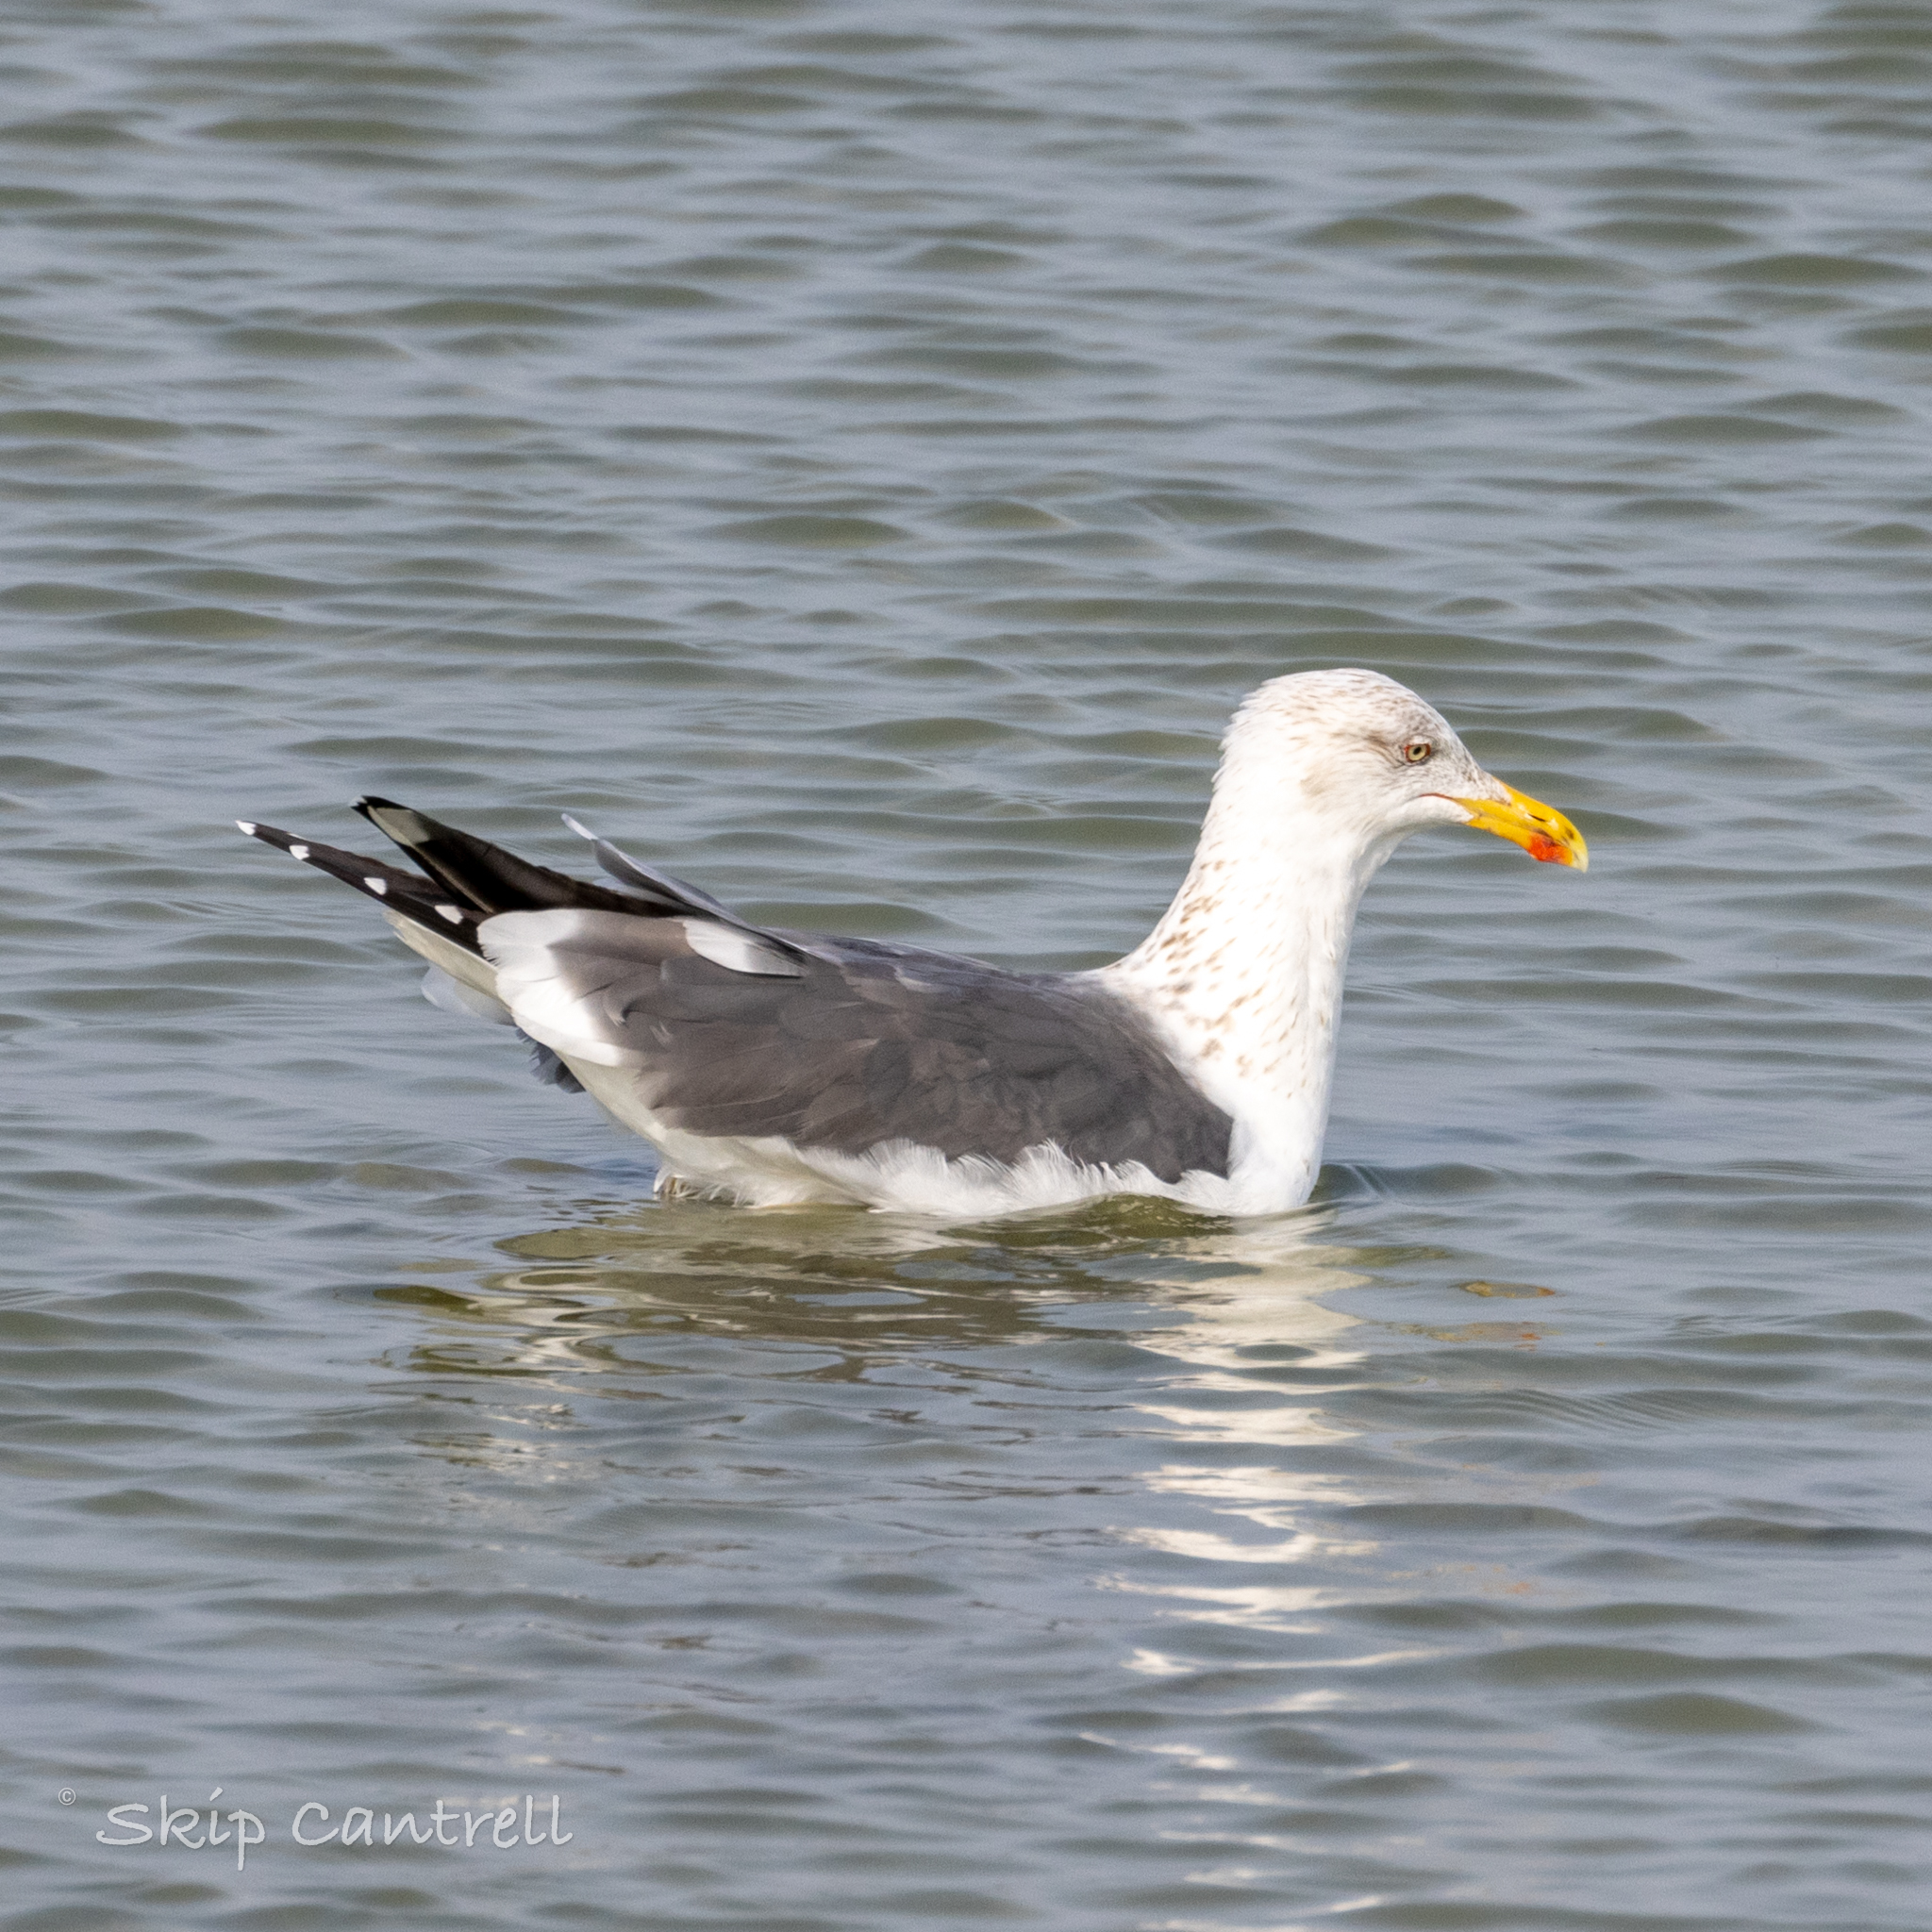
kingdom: Animalia
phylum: Chordata
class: Aves
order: Charadriiformes
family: Laridae
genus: Larus
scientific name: Larus fuscus
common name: Lesser black-backed gull
